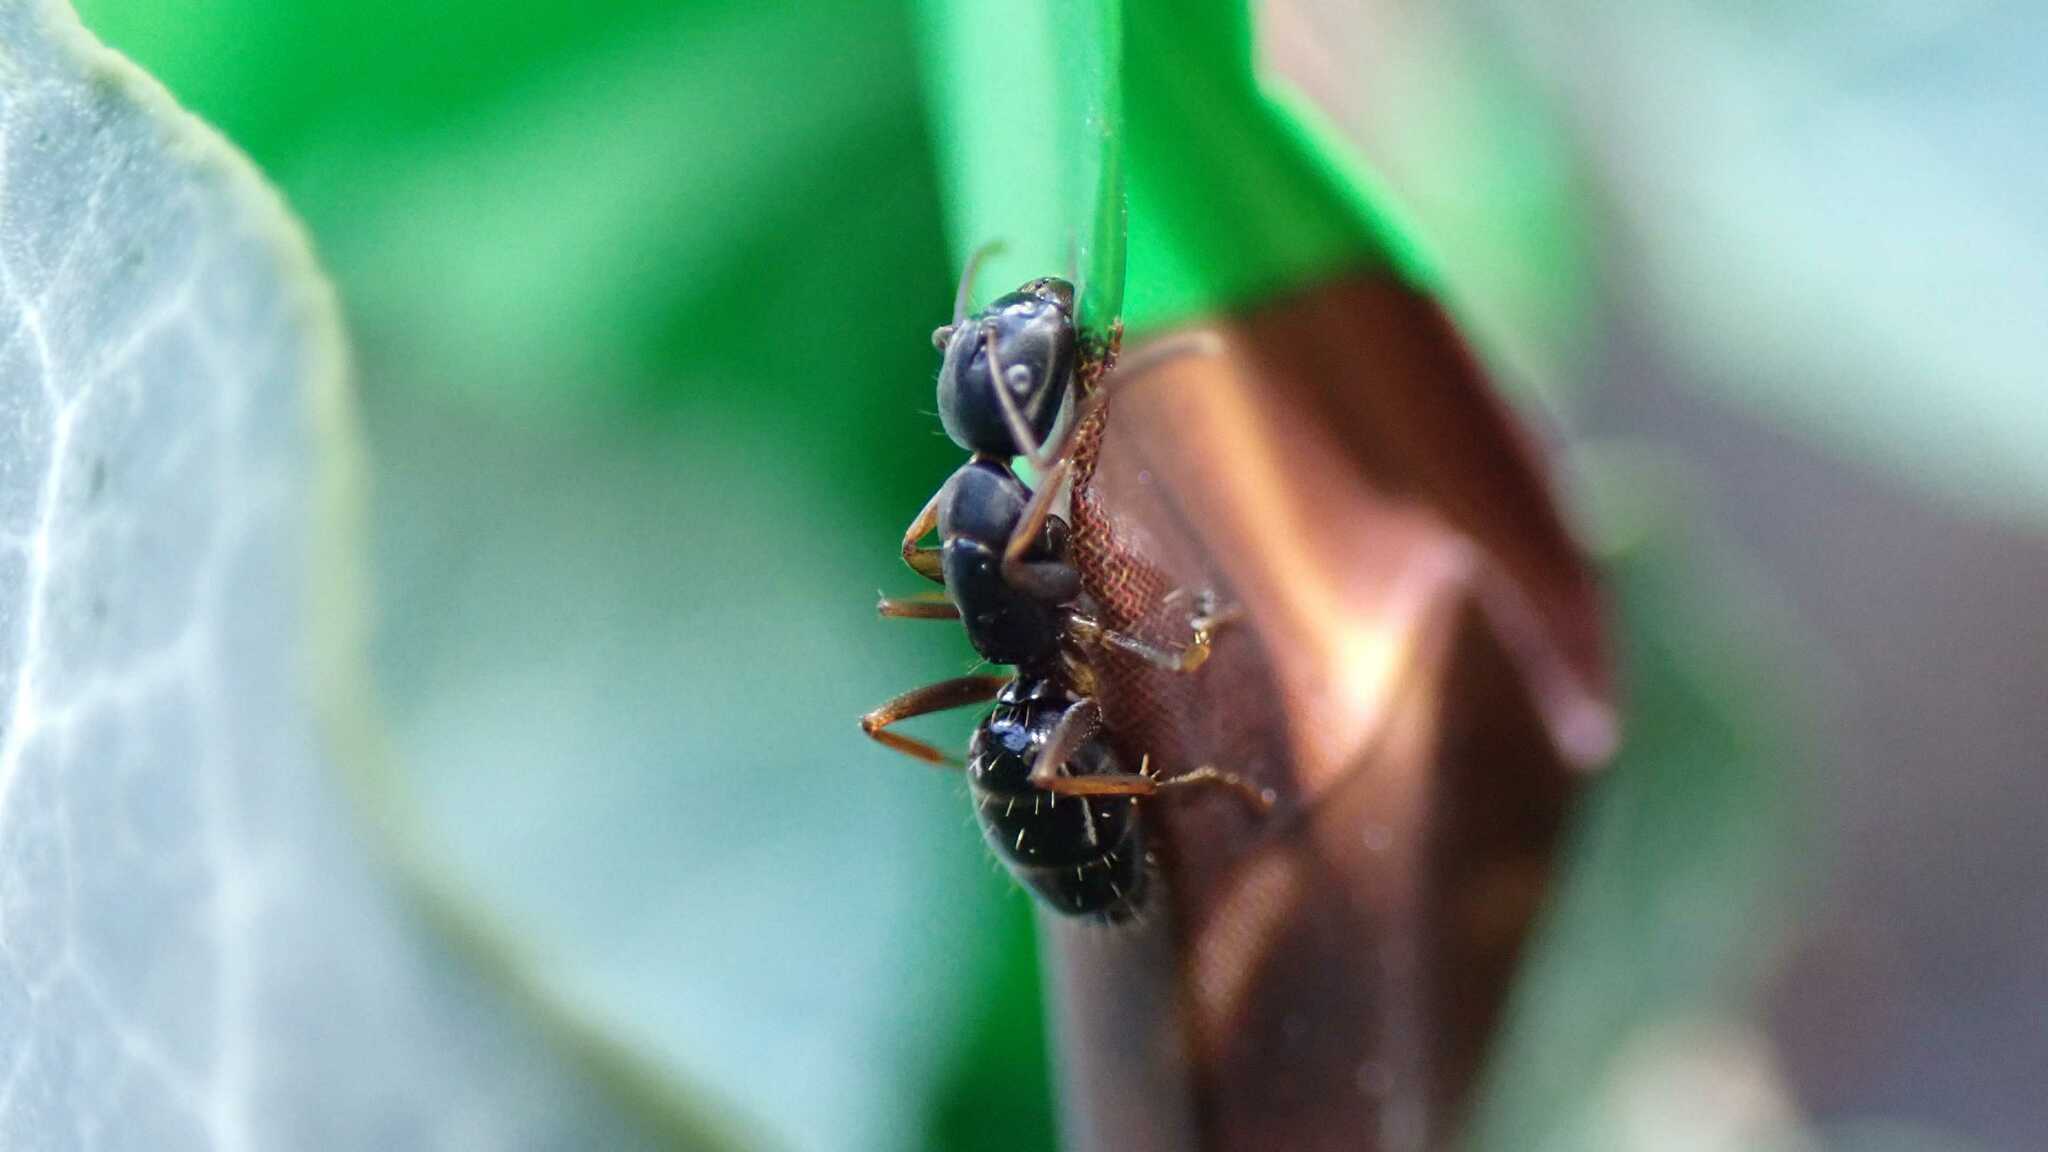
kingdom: Animalia
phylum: Arthropoda
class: Insecta
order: Hymenoptera
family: Formicidae
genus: Camponotus
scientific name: Camponotus fallax
